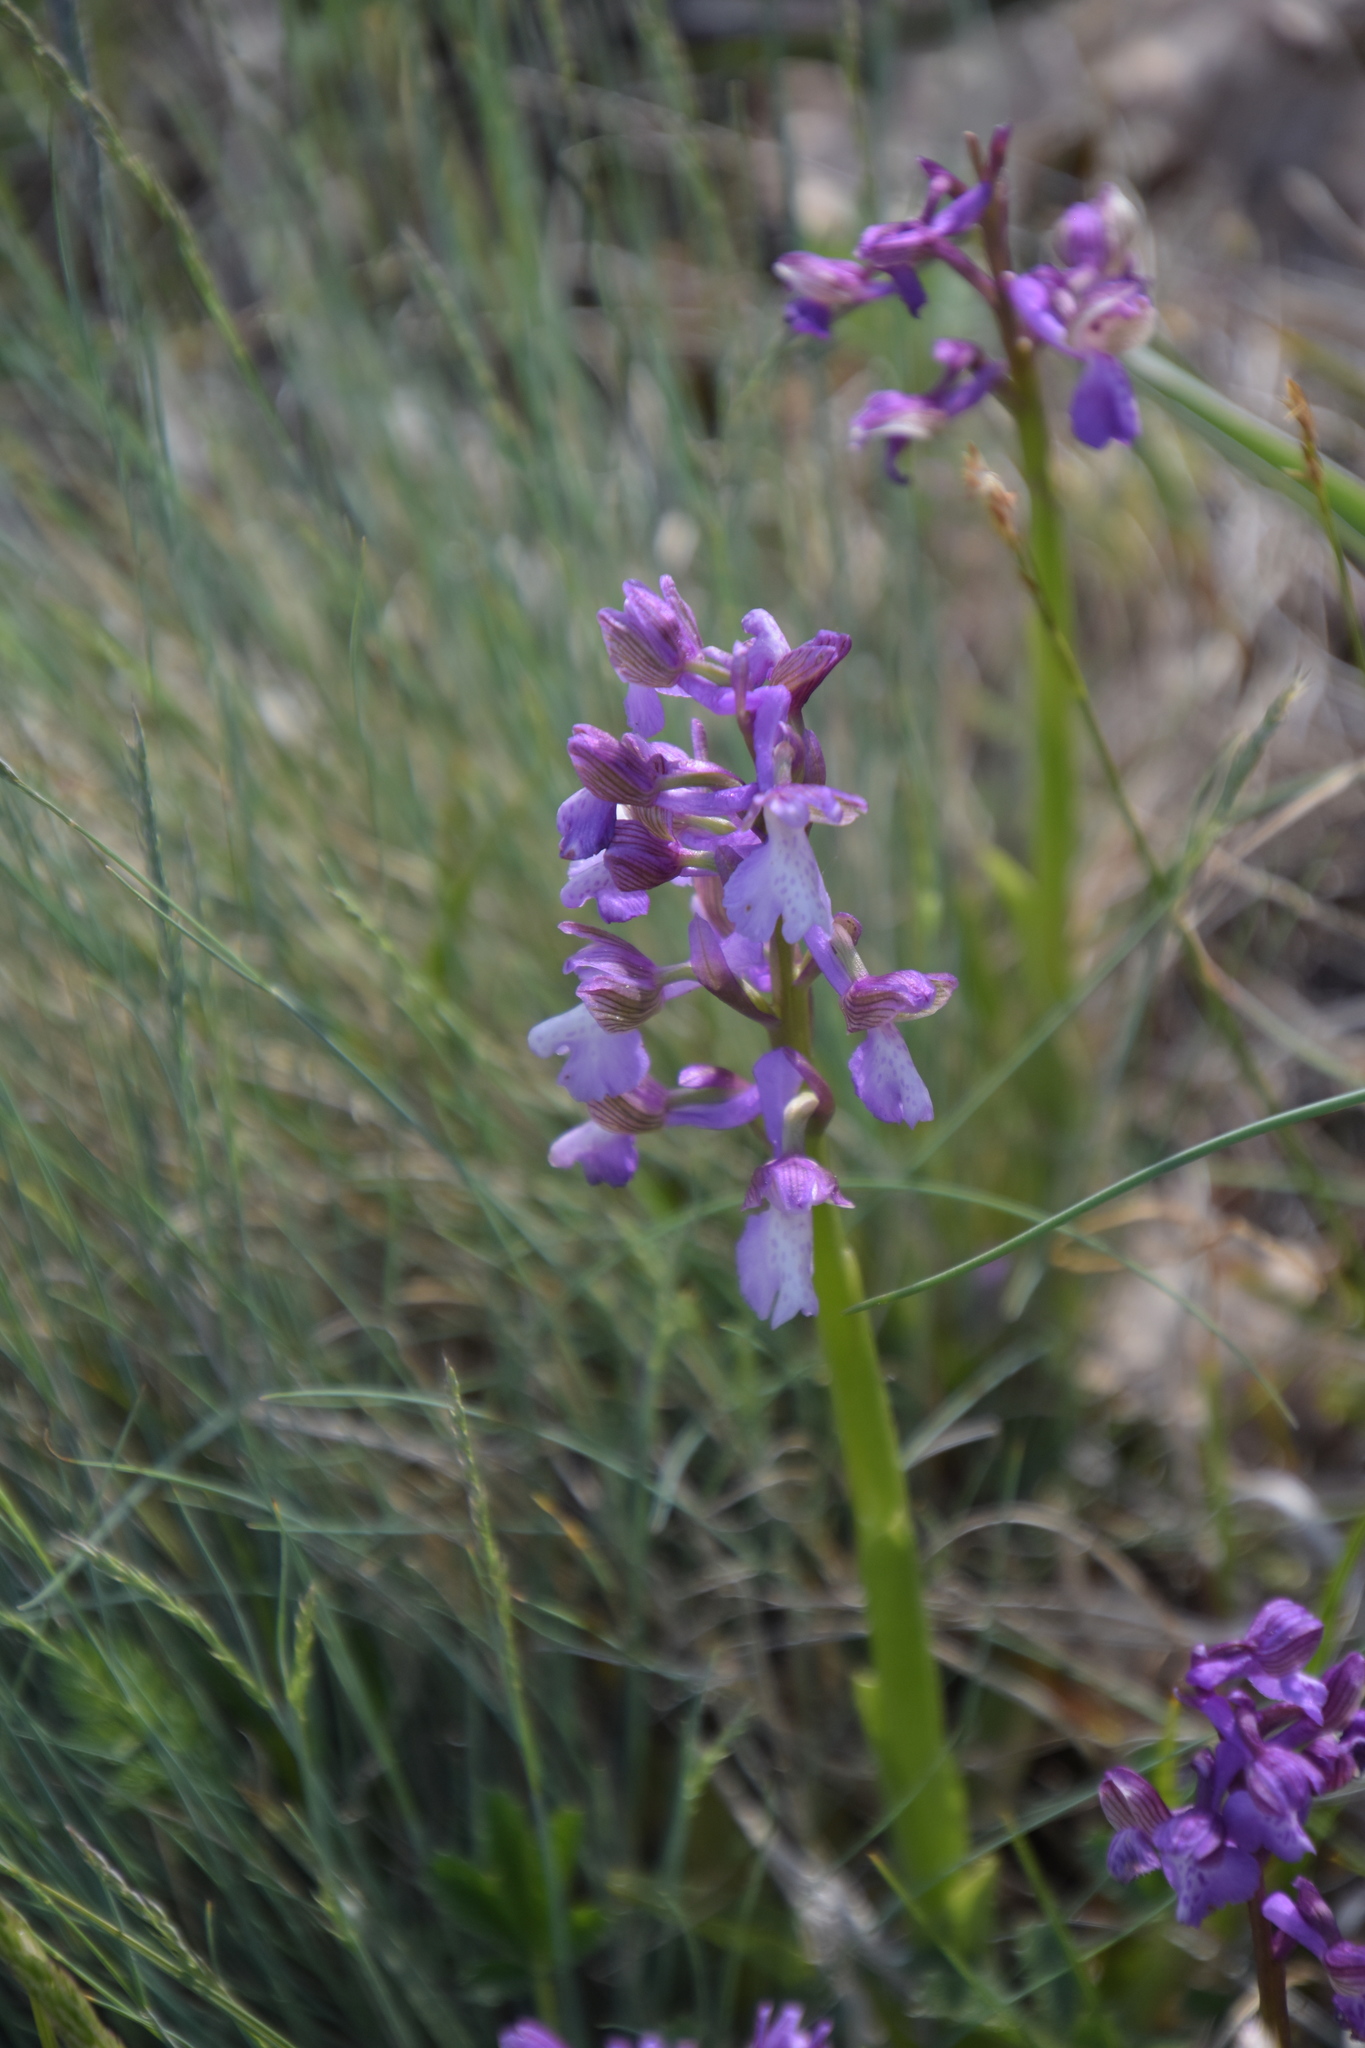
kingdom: Plantae
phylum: Tracheophyta
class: Liliopsida
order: Asparagales
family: Orchidaceae
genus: Anacamptis
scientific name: Anacamptis morio
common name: Green-winged orchid
